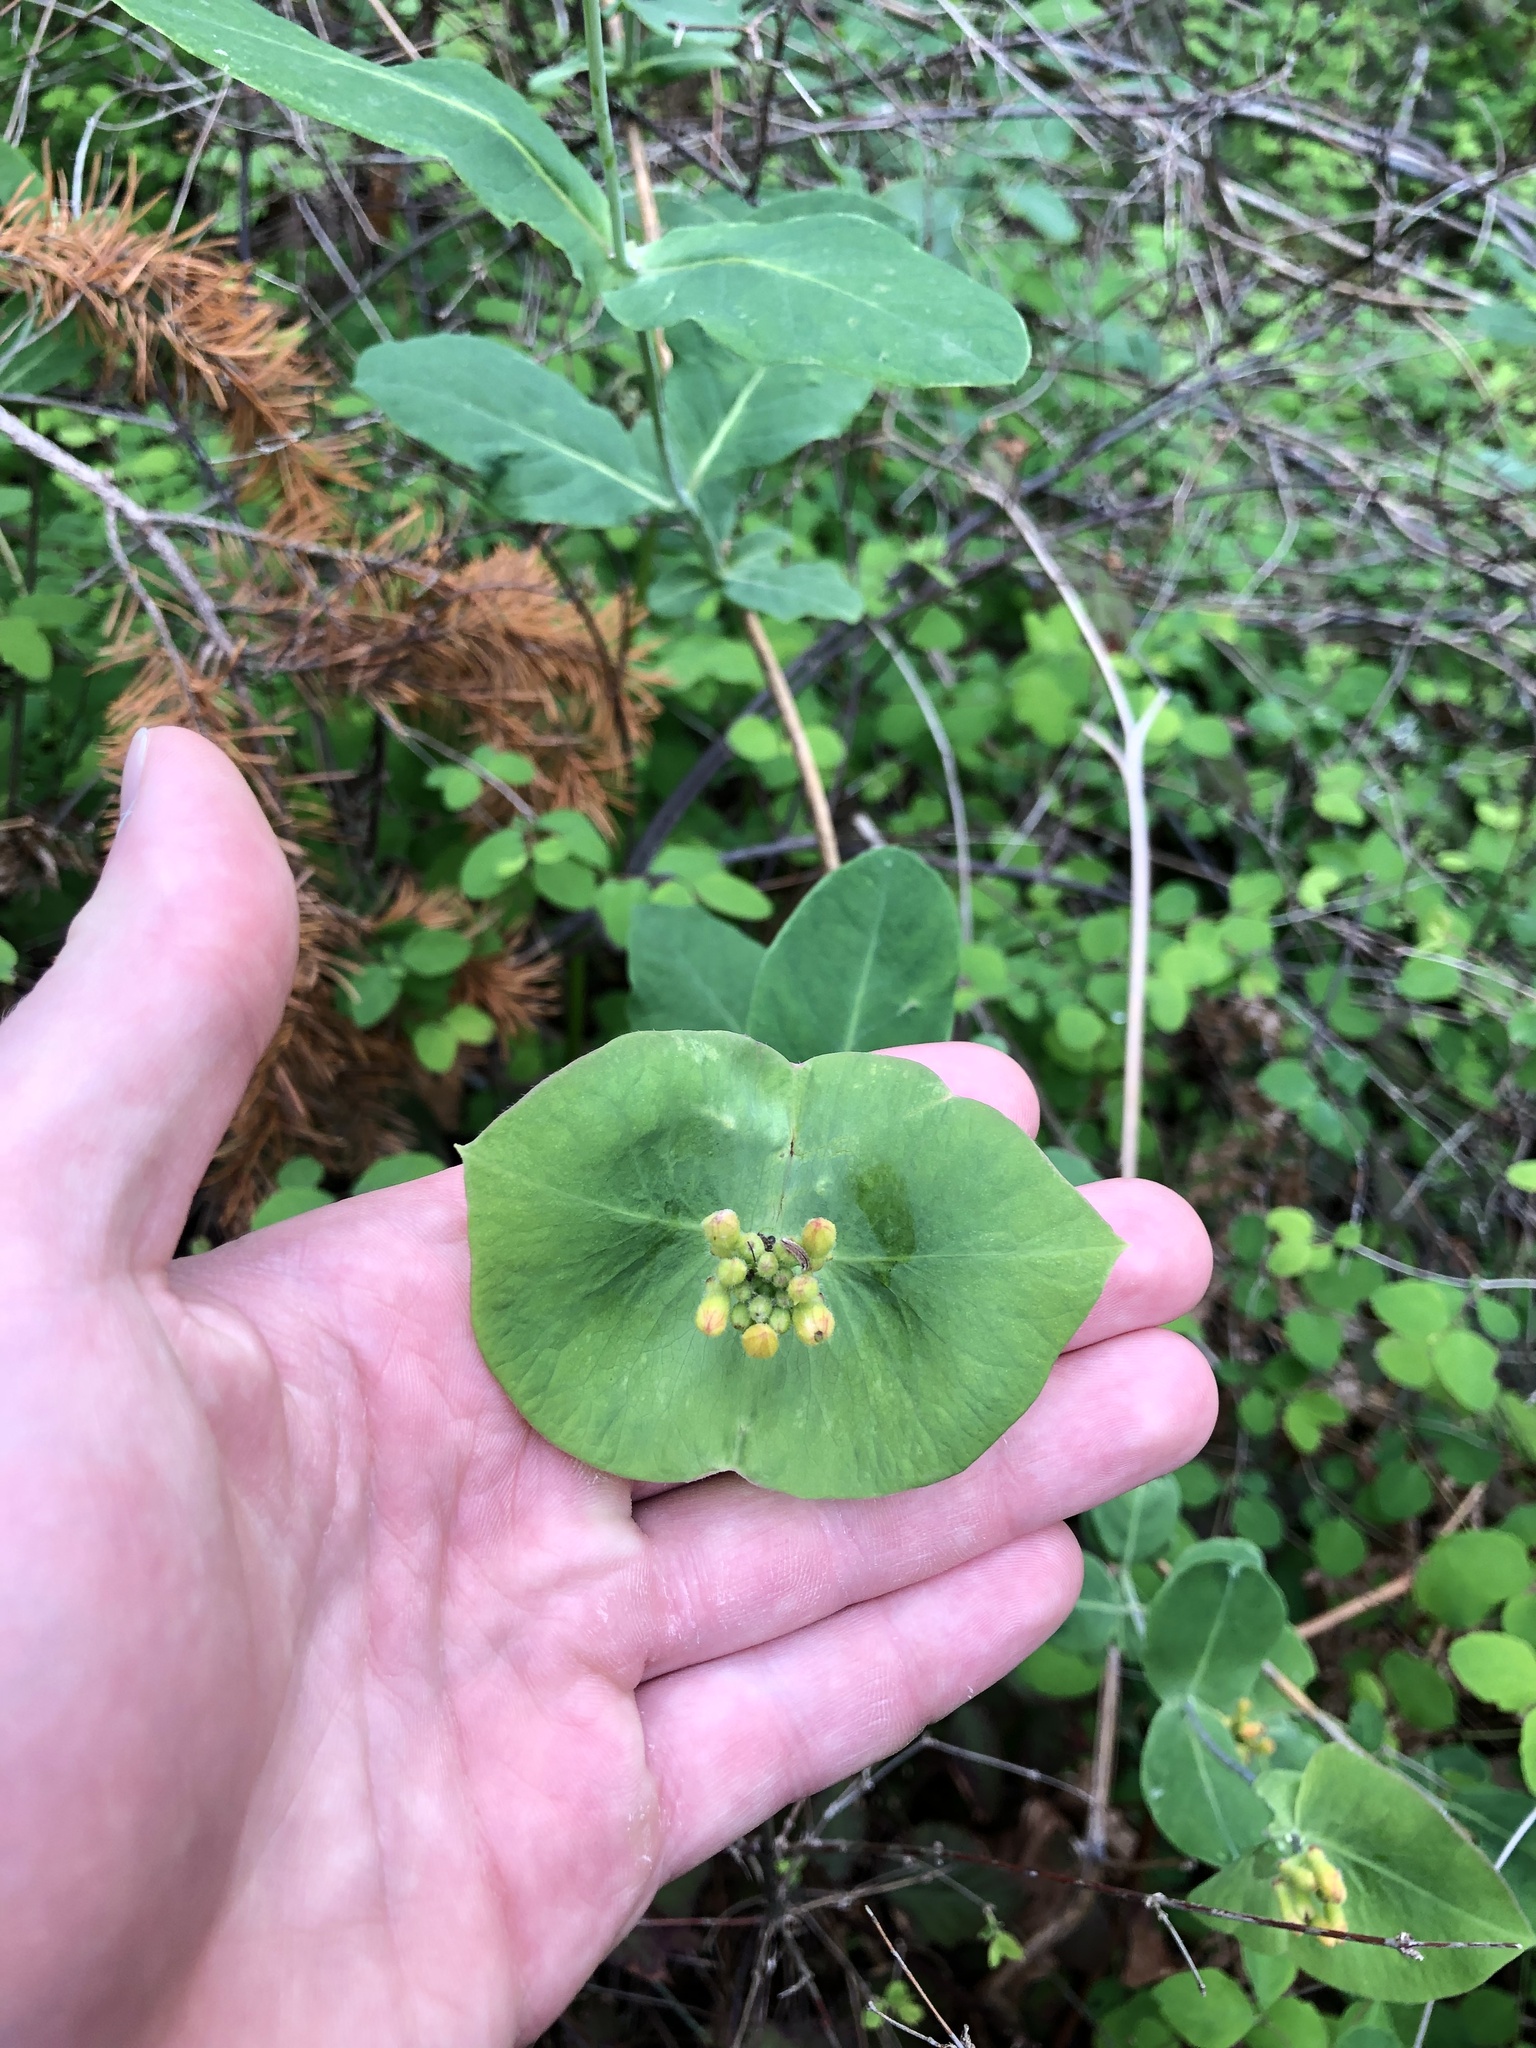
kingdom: Plantae
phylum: Tracheophyta
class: Magnoliopsida
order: Dipsacales
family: Caprifoliaceae
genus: Lonicera
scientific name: Lonicera ciliosa
